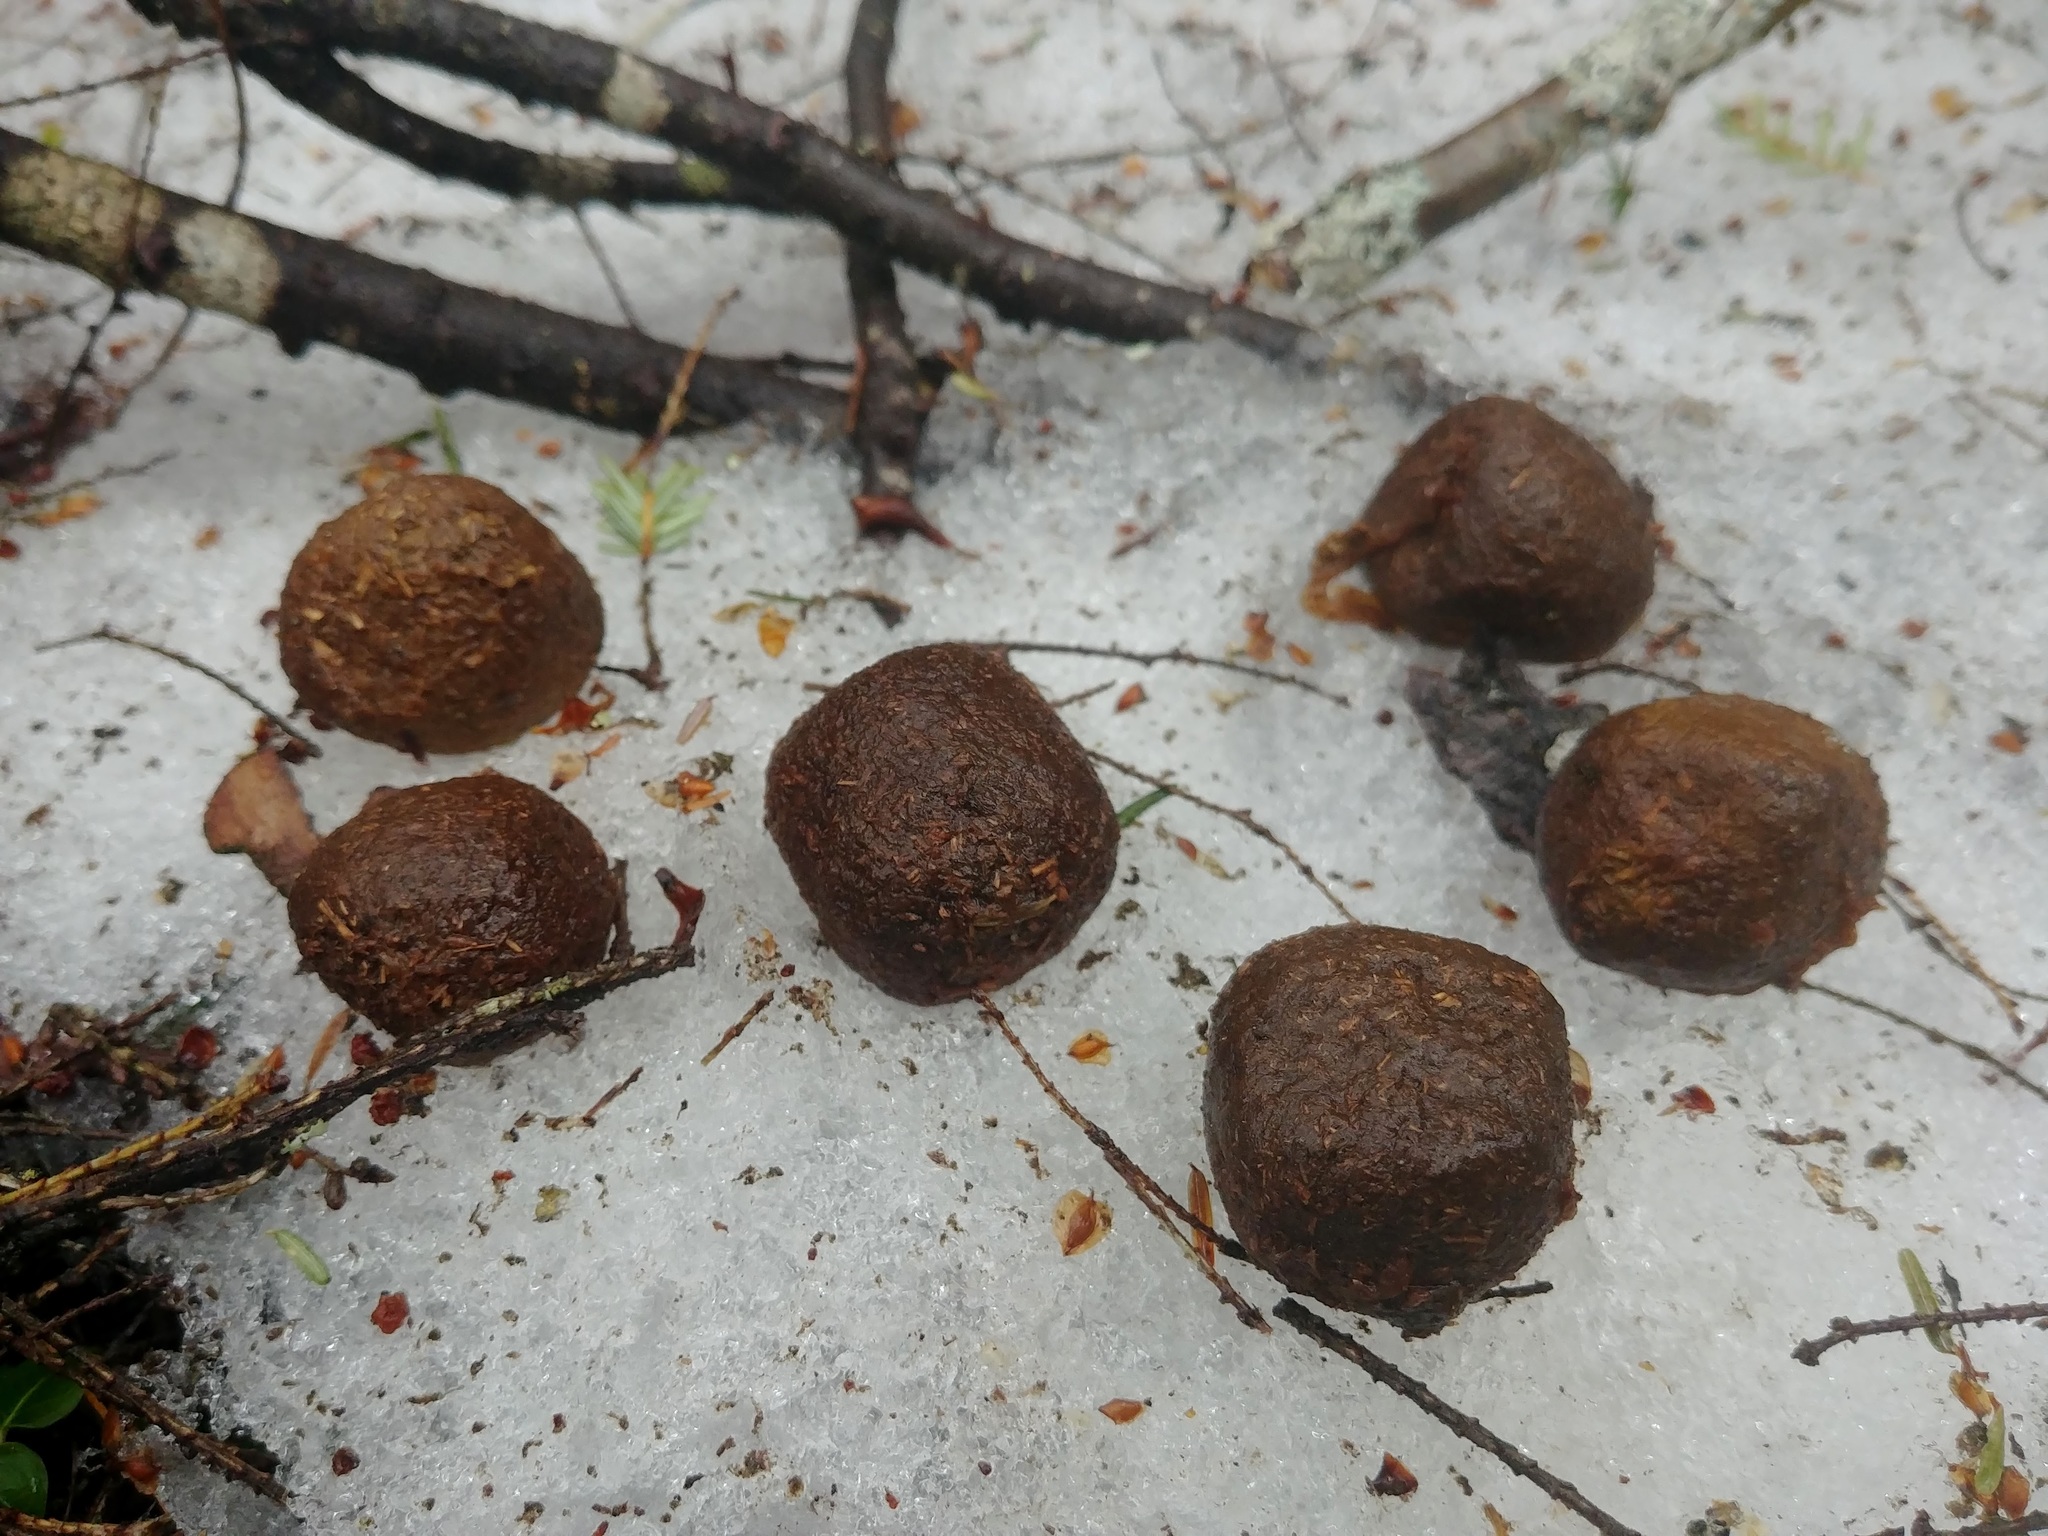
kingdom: Animalia
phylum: Chordata
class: Mammalia
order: Artiodactyla
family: Cervidae
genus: Alces
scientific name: Alces alces
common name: Moose
